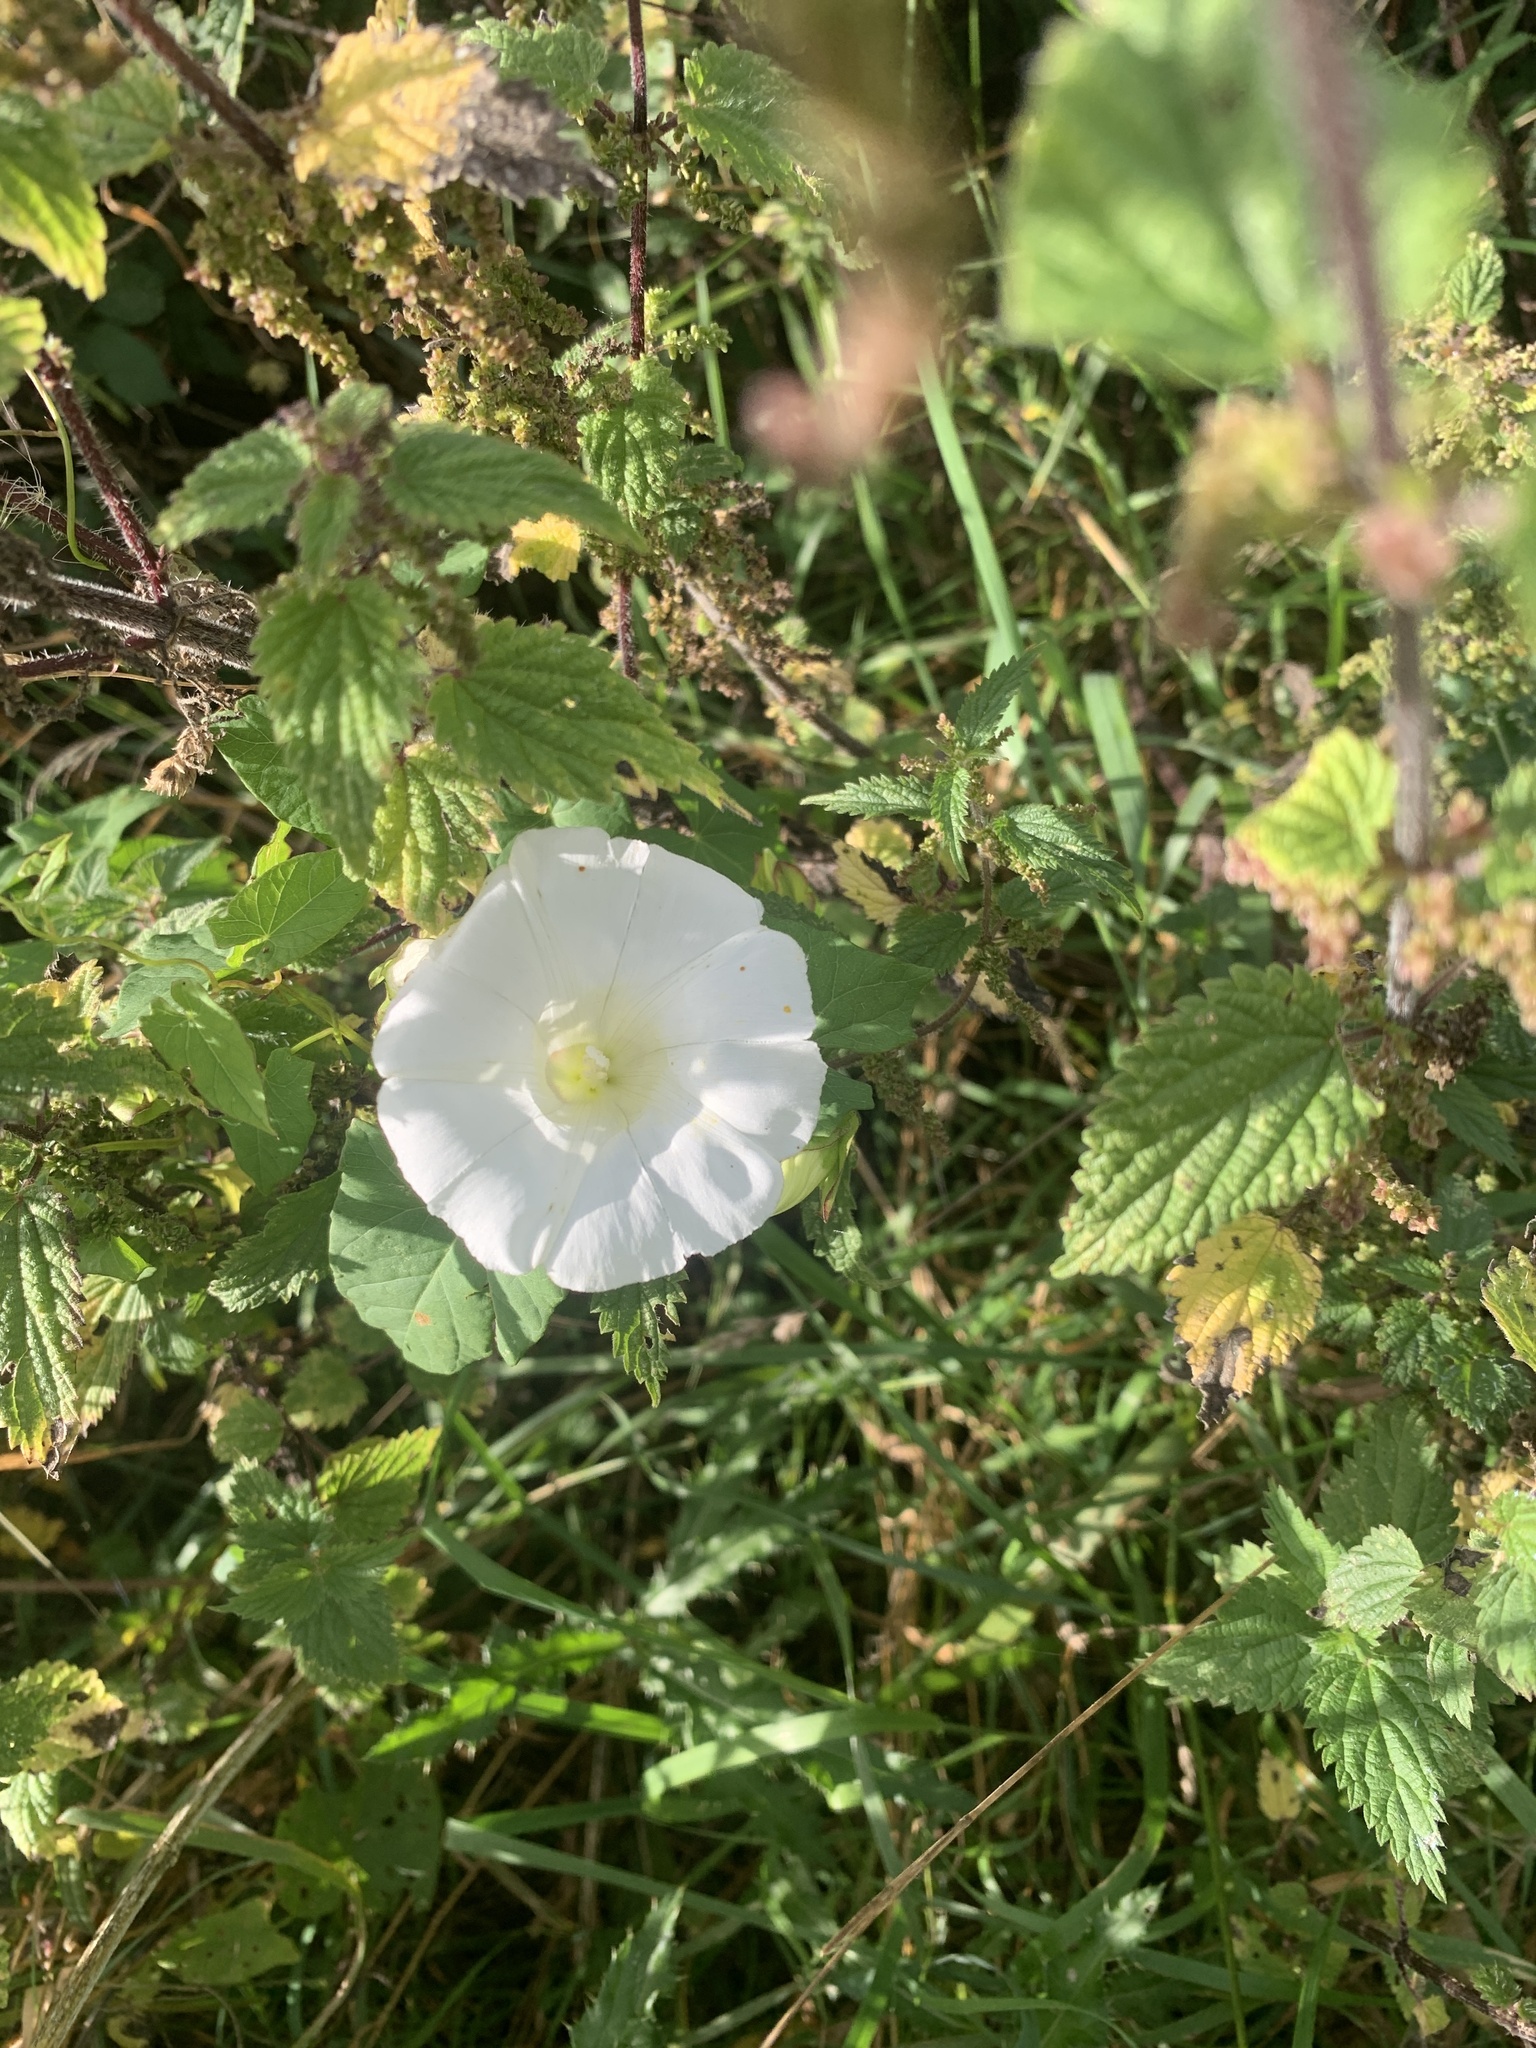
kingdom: Plantae
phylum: Tracheophyta
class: Magnoliopsida
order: Solanales
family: Convolvulaceae
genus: Calystegia
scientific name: Calystegia sepium
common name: Hedge bindweed
